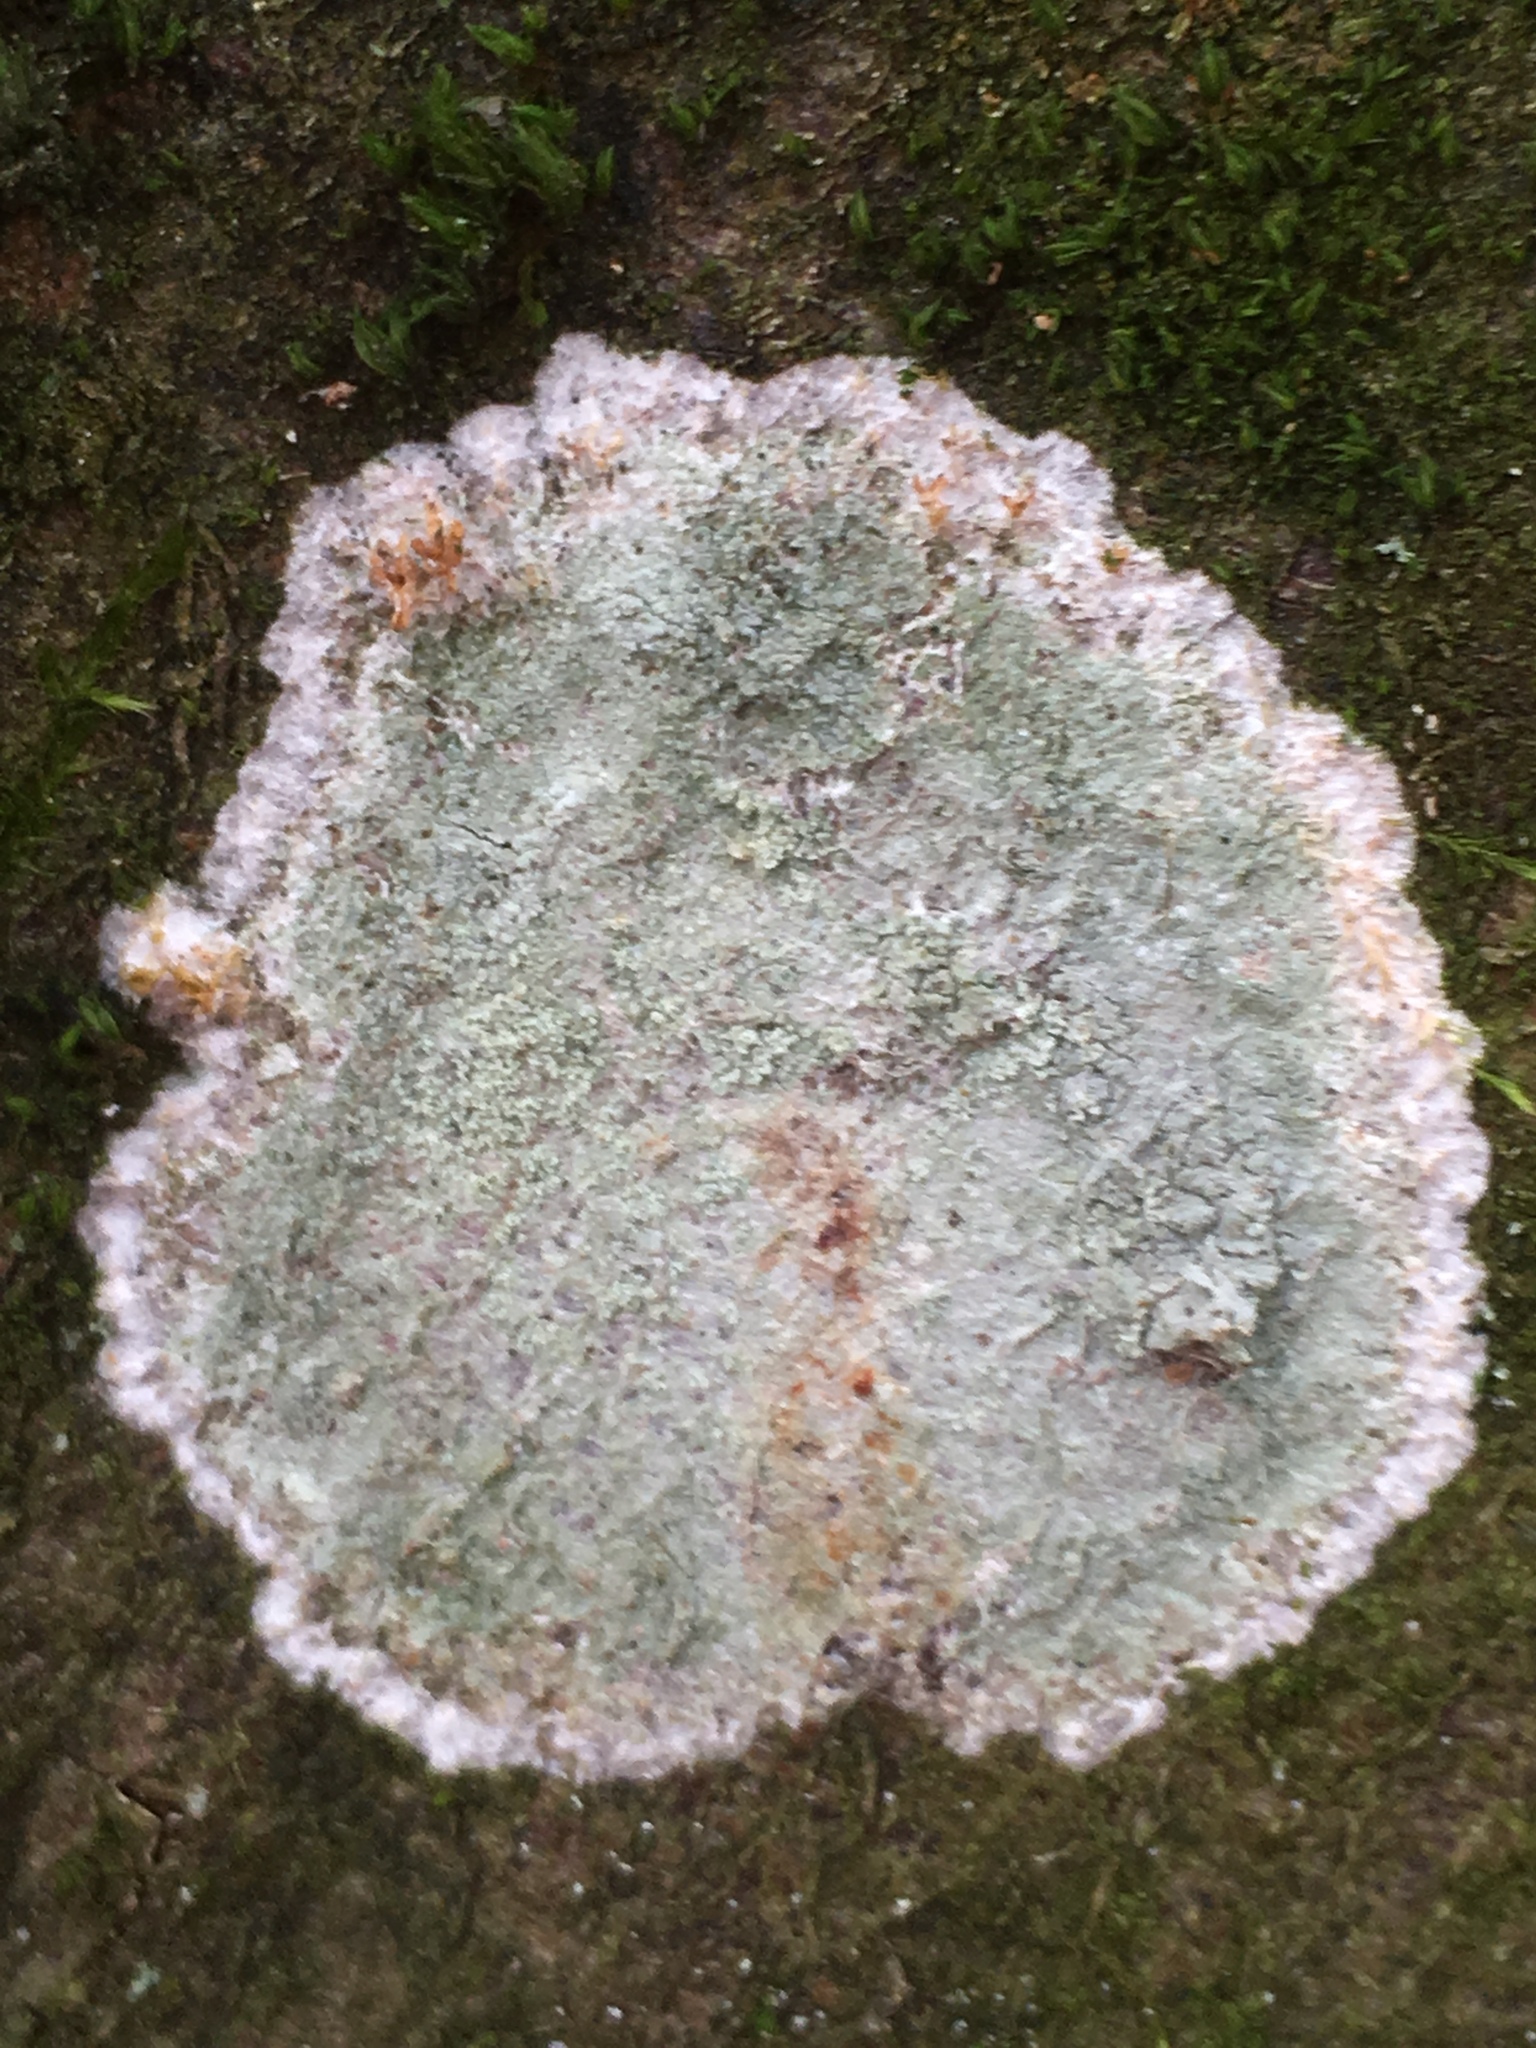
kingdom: Fungi
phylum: Ascomycota
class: Lecanoromycetes
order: Ostropales
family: Phlyctidaceae
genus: Phlyctis
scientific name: Phlyctis argena
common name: Whitewash lichen
